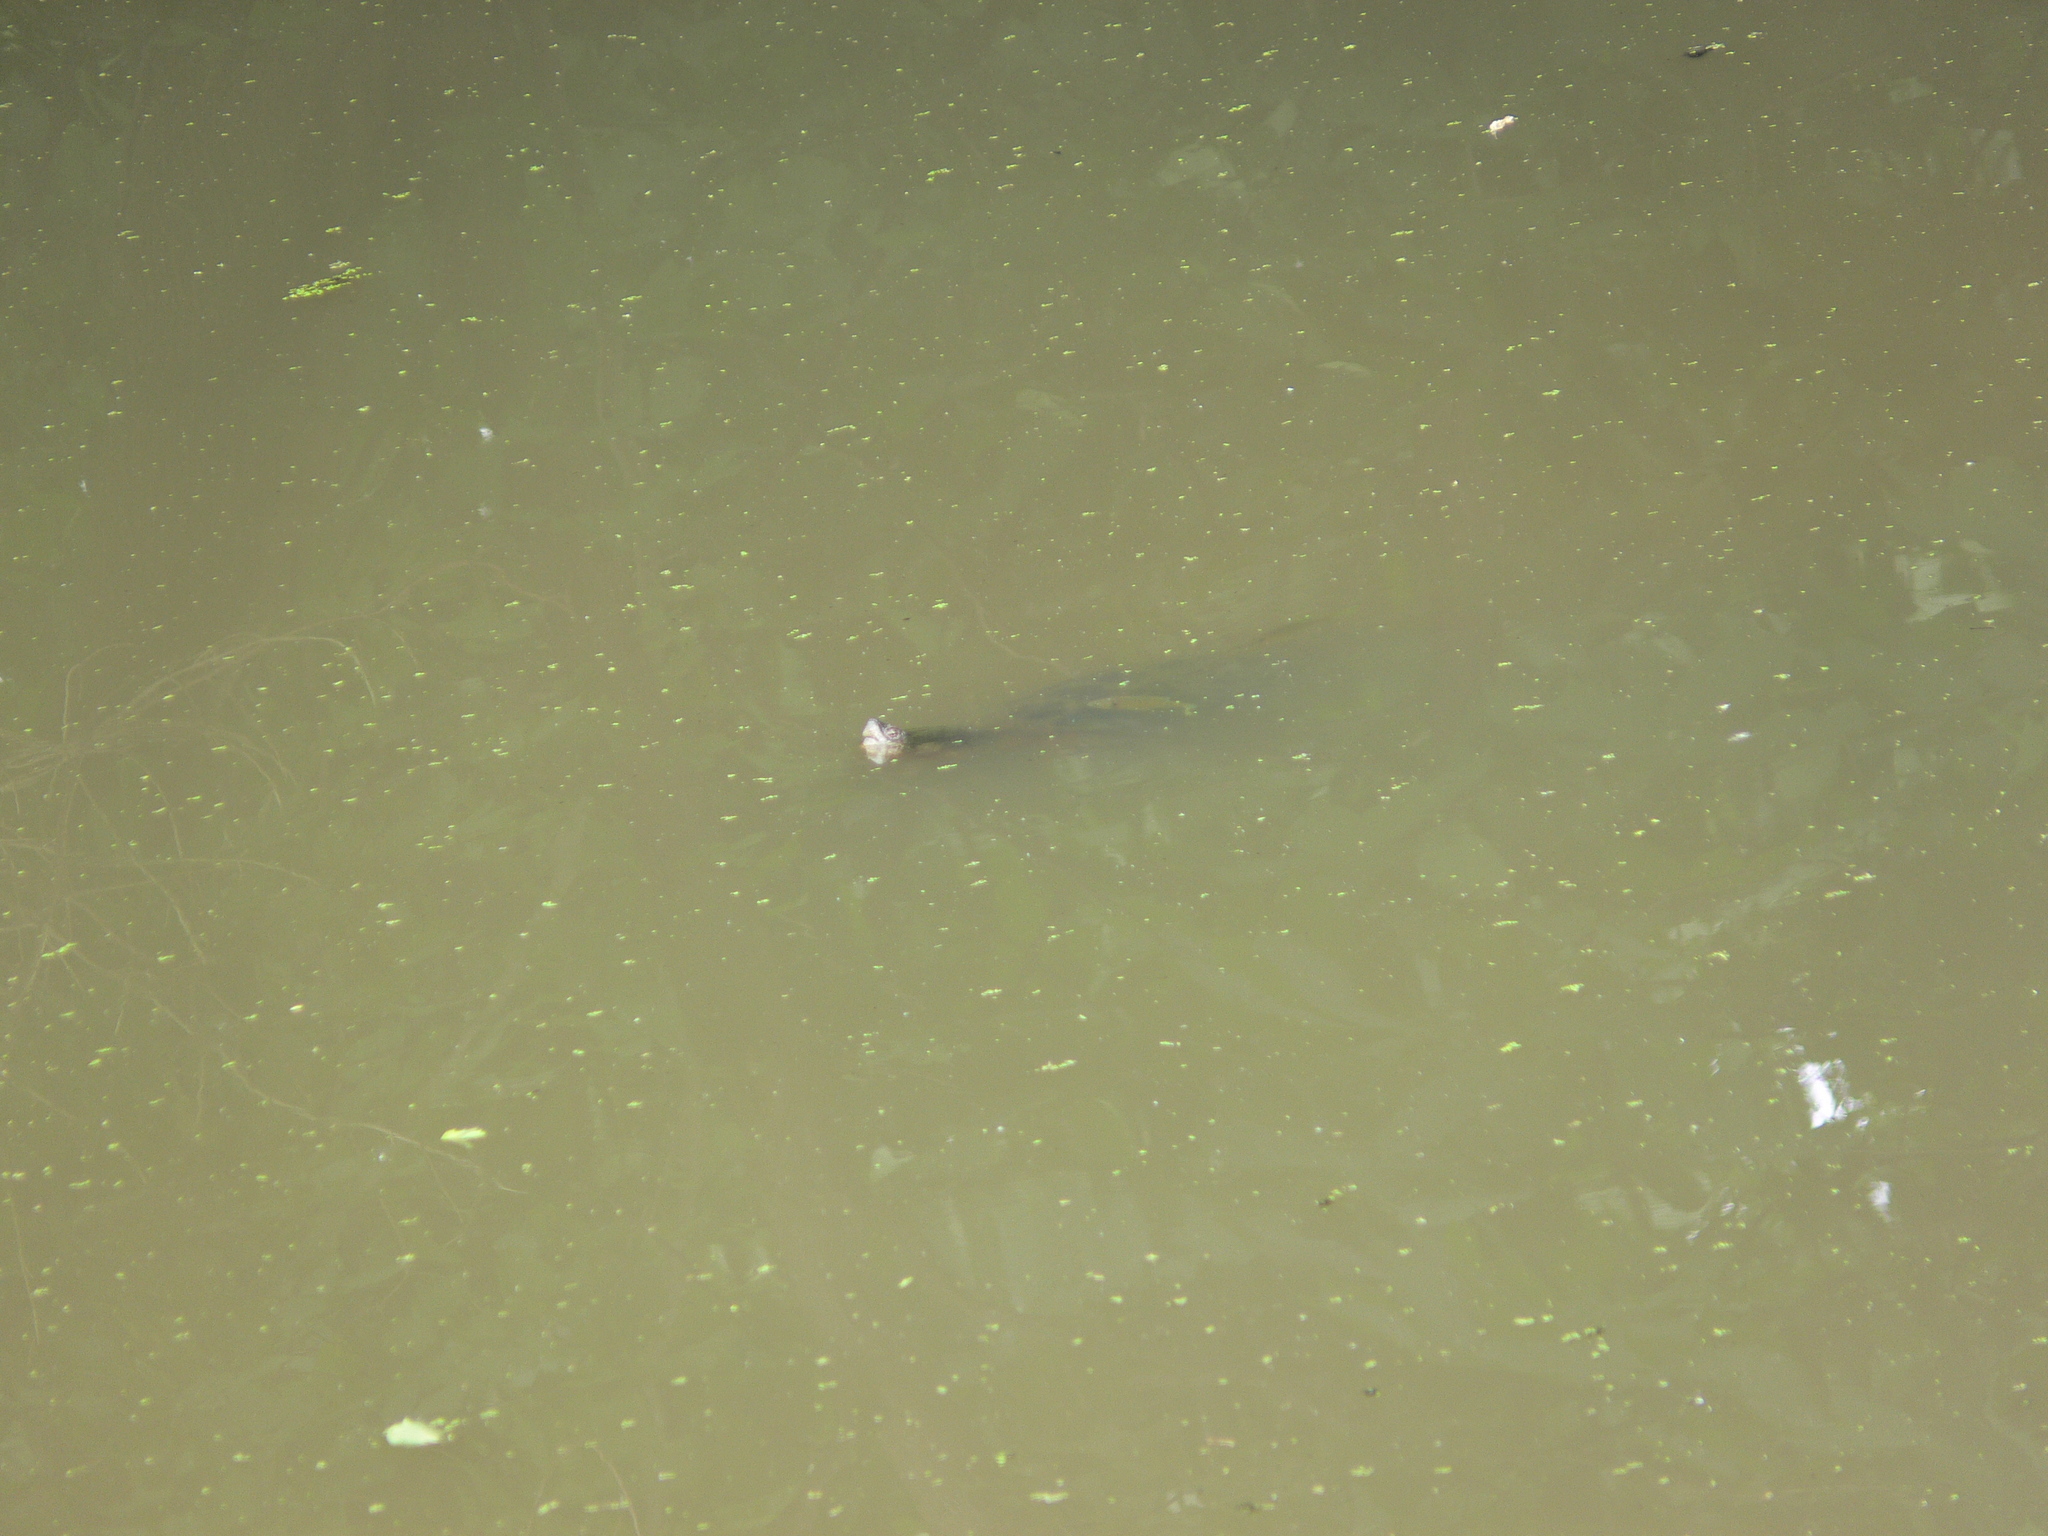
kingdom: Animalia
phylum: Chordata
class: Testudines
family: Chelydridae
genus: Chelydra
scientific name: Chelydra serpentina
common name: Common snapping turtle
